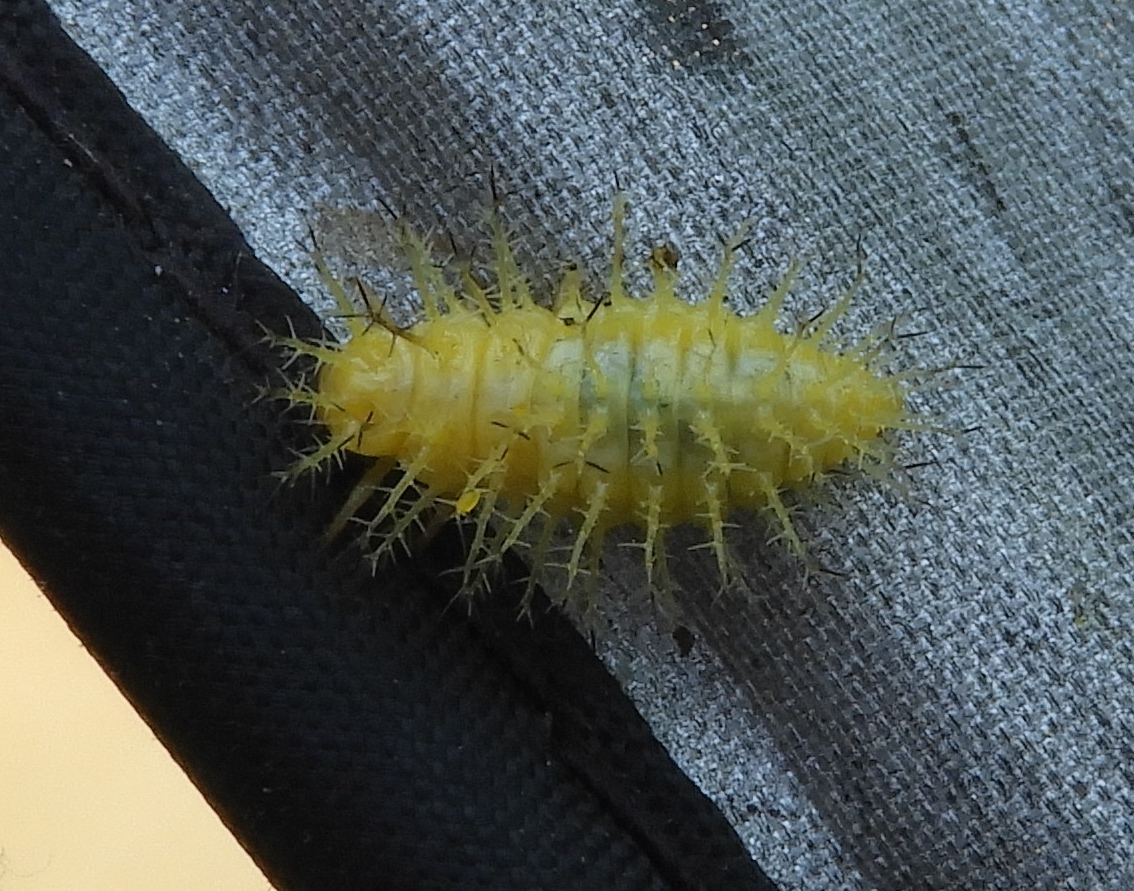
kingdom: Animalia
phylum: Arthropoda
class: Insecta
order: Coleoptera
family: Coccinellidae
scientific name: Coccinellidae
